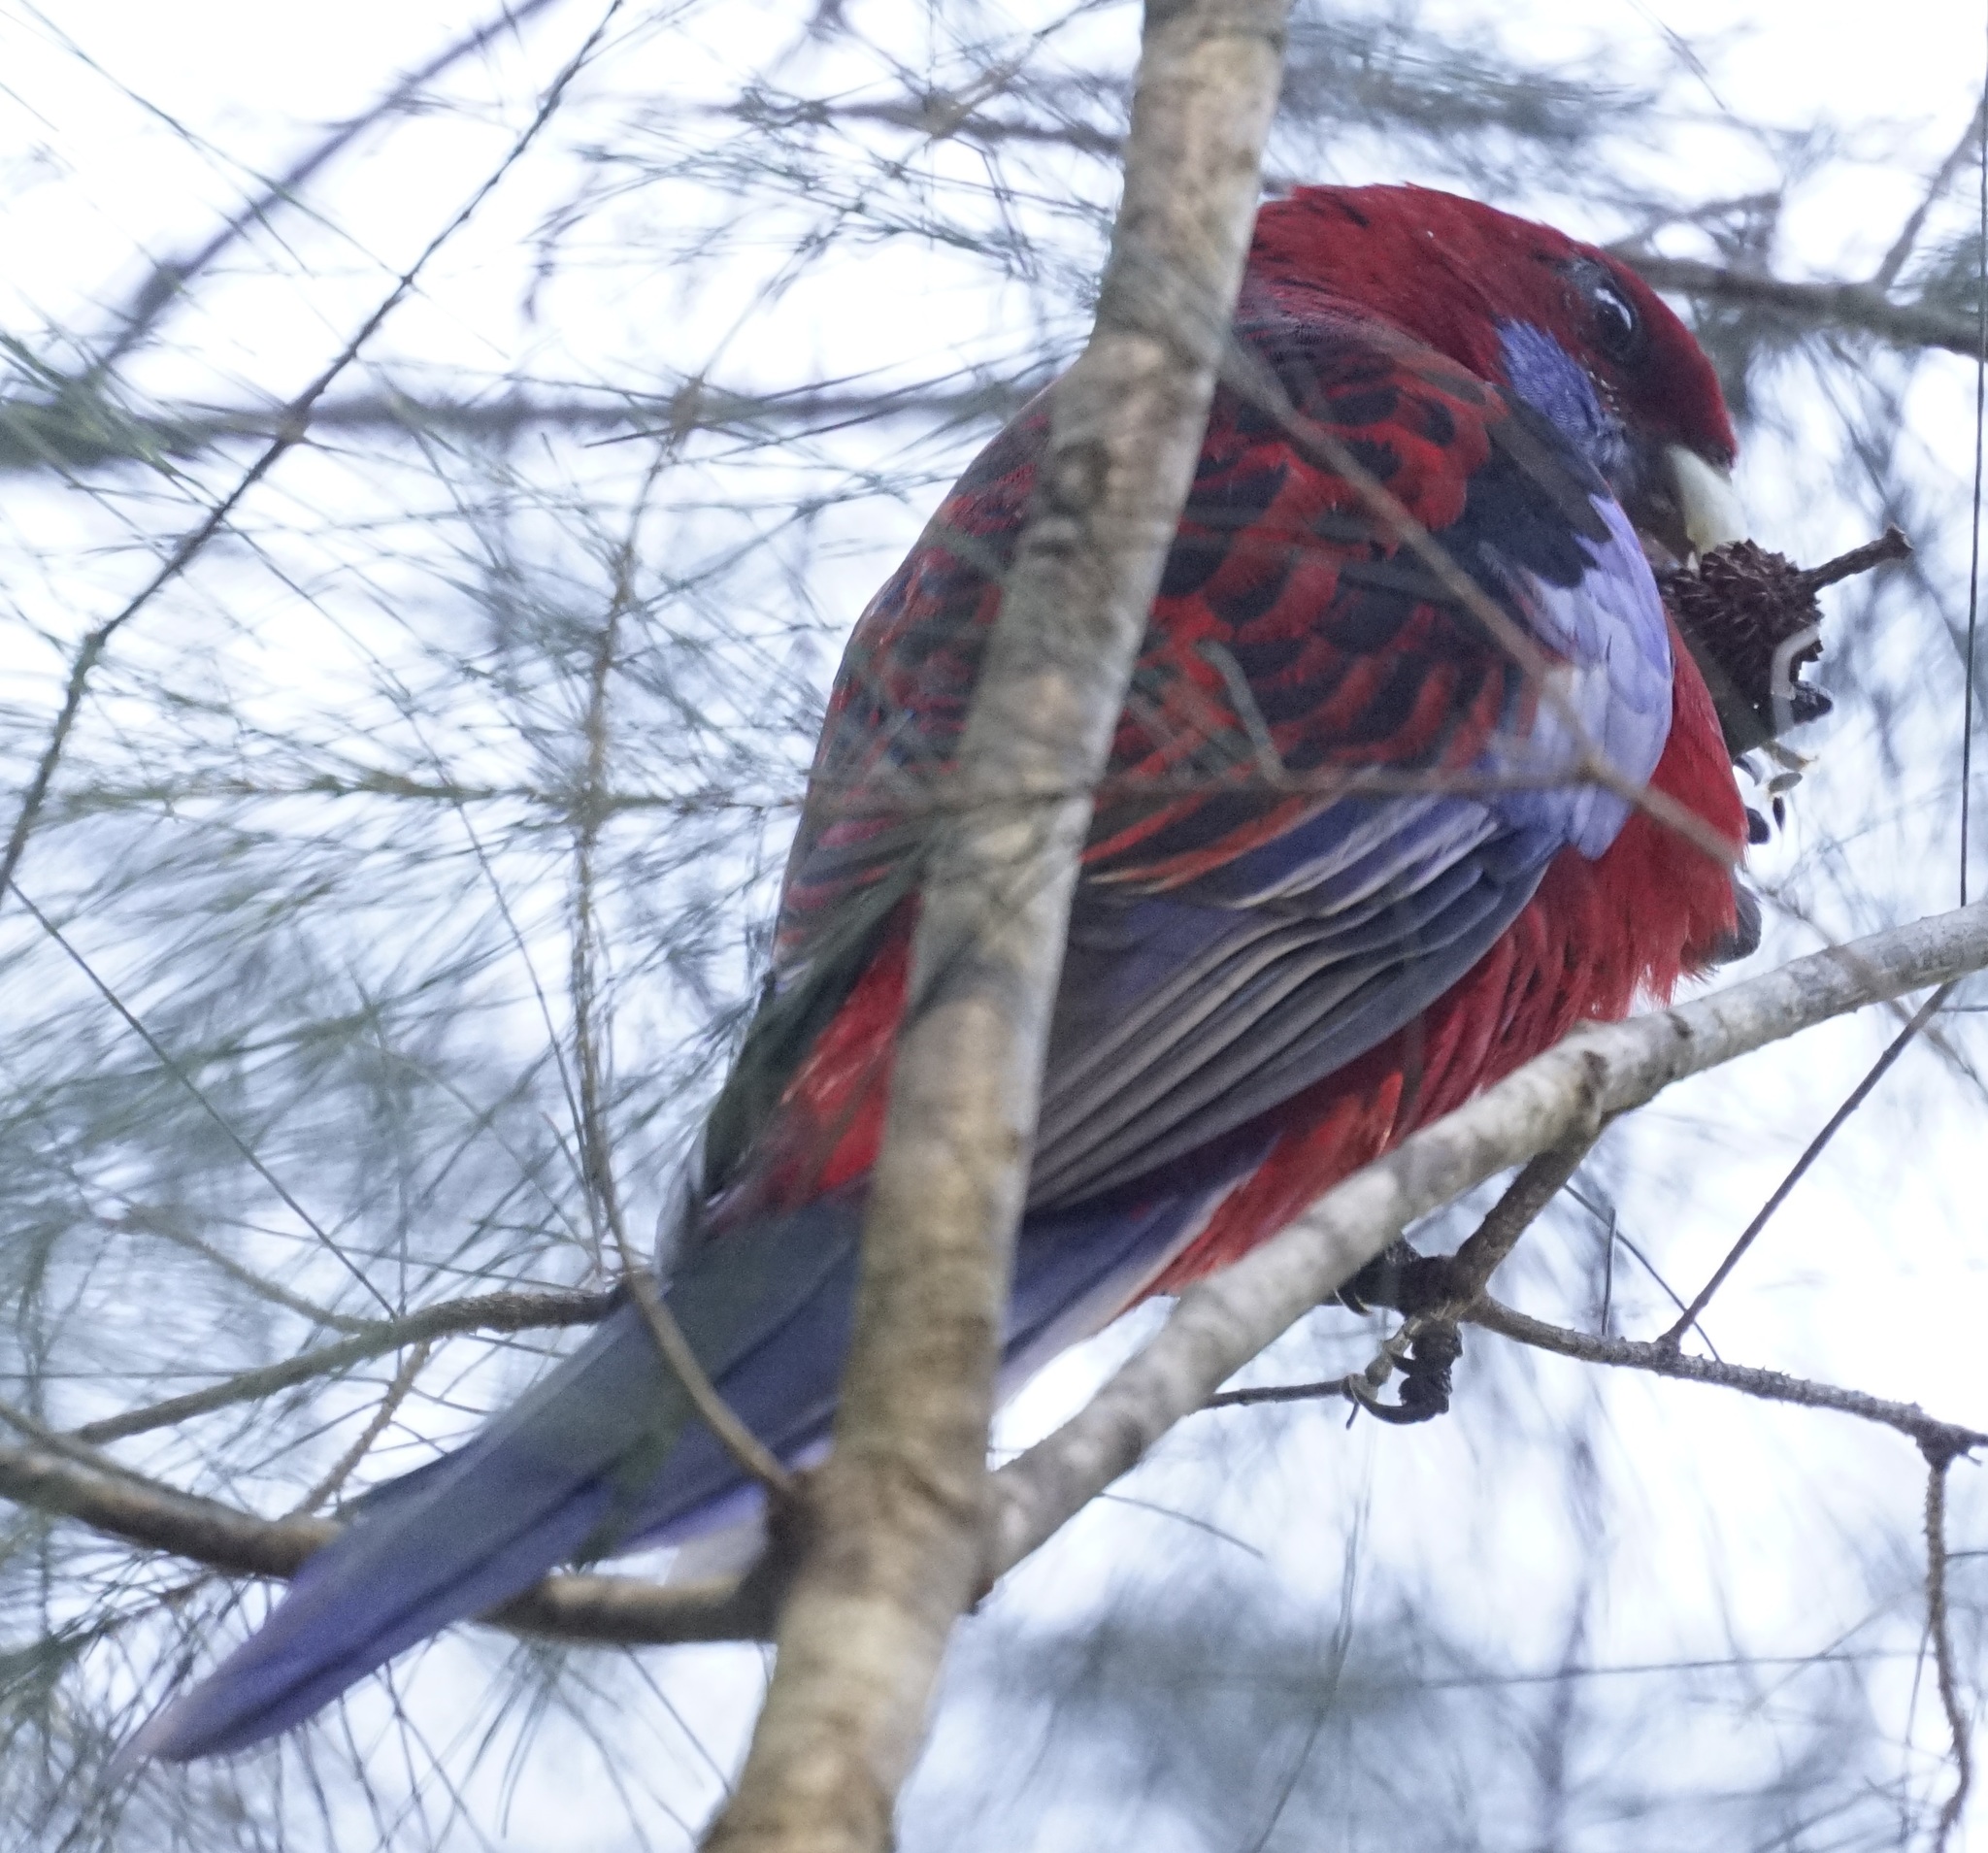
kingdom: Animalia
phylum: Chordata
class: Aves
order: Psittaciformes
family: Psittacidae
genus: Platycercus
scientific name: Platycercus elegans
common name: Crimson rosella
